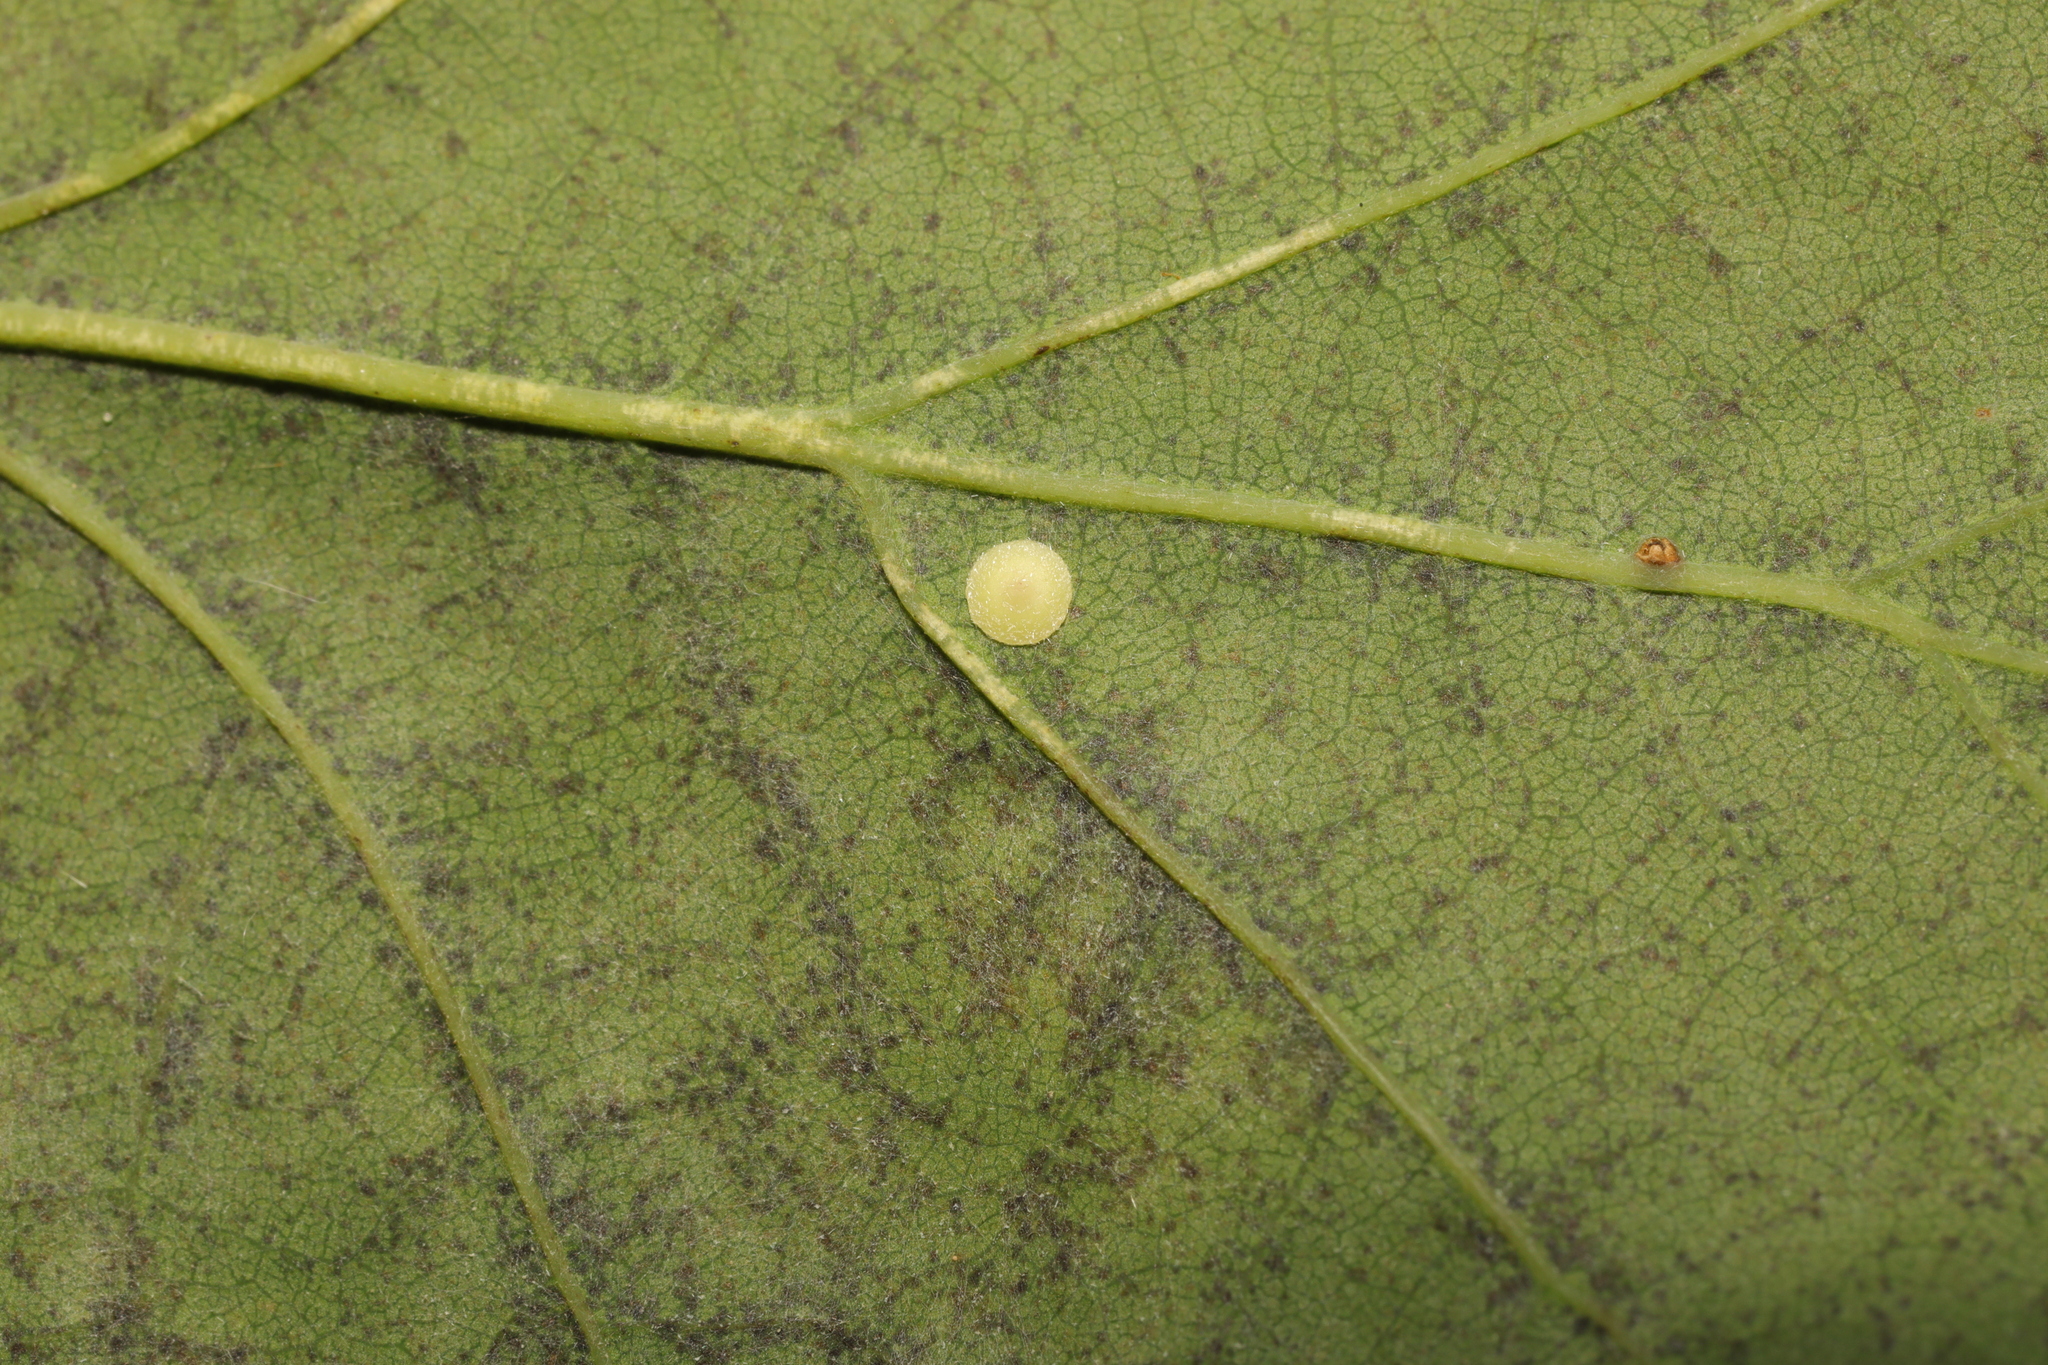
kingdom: Animalia
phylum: Arthropoda
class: Insecta
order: Hymenoptera
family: Cynipidae
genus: Neuroterus
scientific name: Neuroterus albipes
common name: Smooth spangle gall
